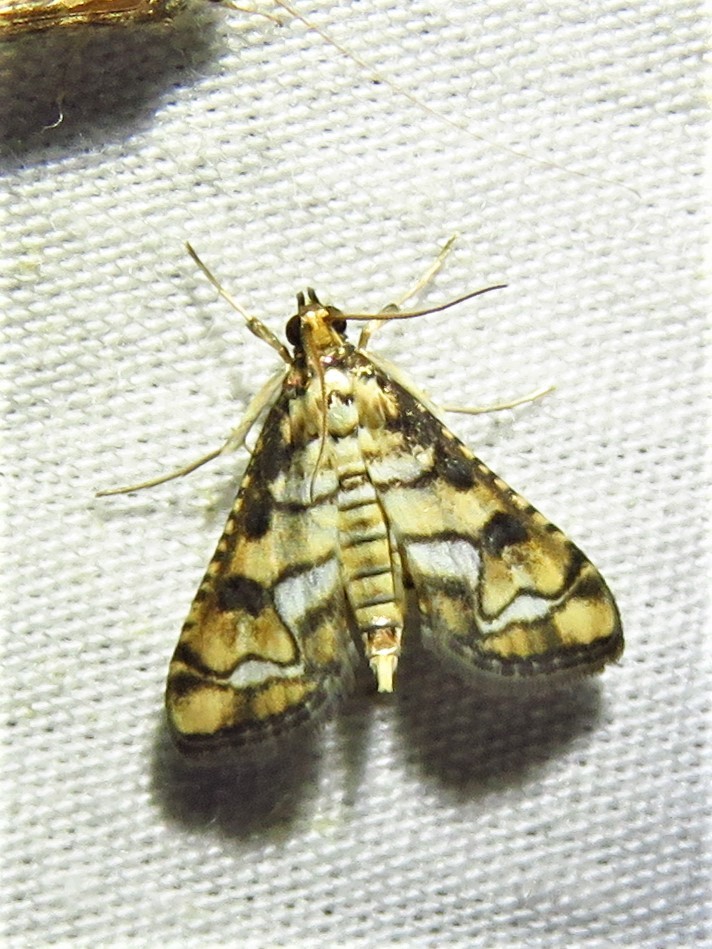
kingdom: Animalia
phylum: Arthropoda
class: Insecta
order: Lepidoptera
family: Crambidae
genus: Hileithia
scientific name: Hileithia magualis
